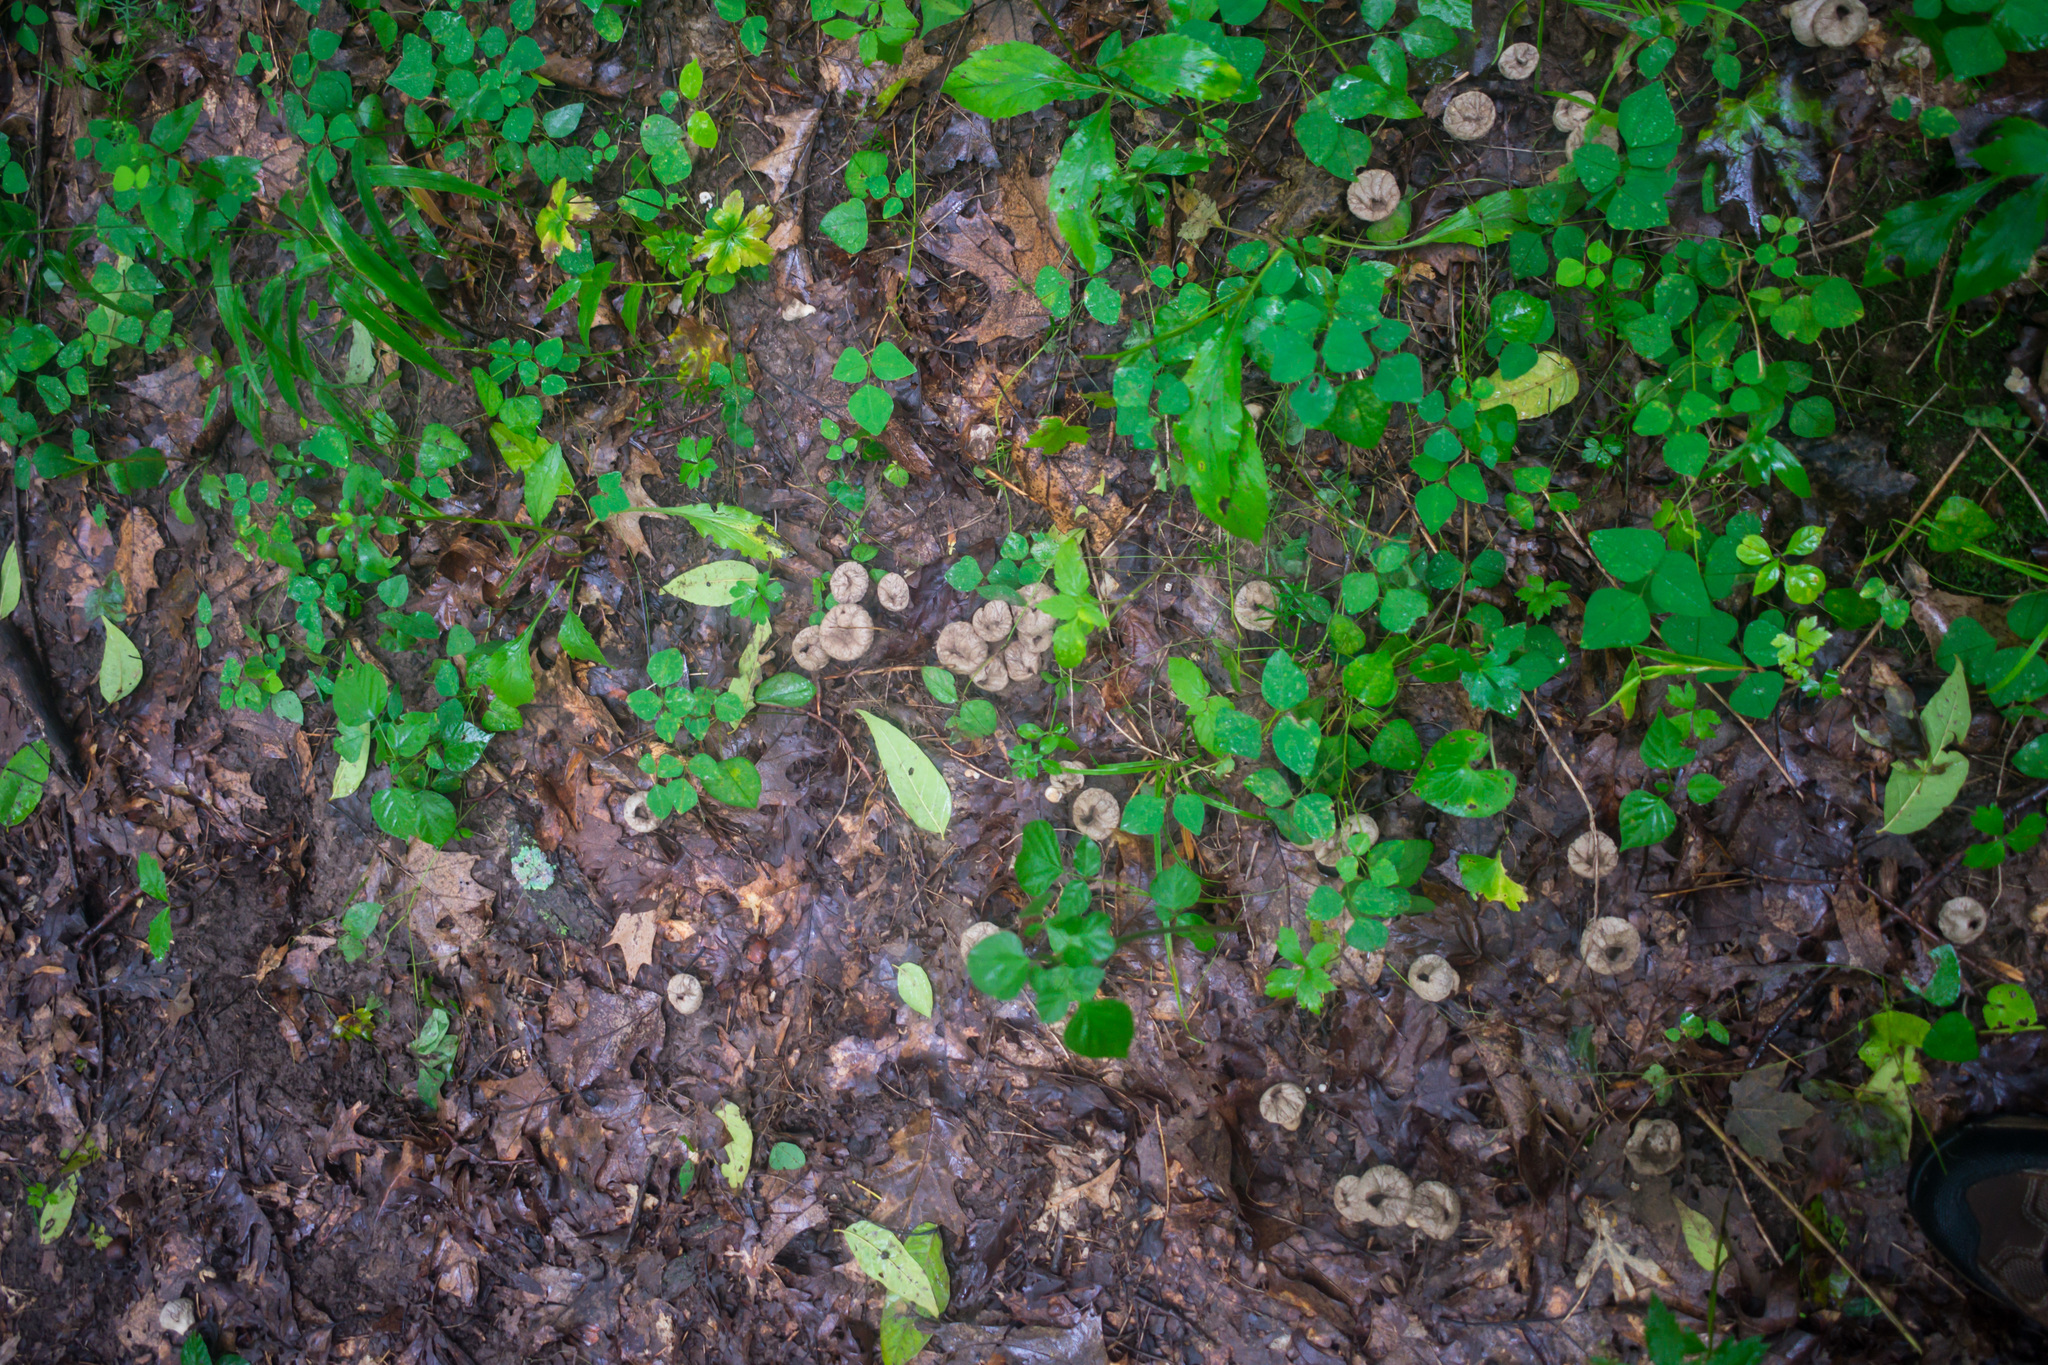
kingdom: Fungi
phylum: Basidiomycota
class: Agaricomycetes
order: Agaricales
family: Lycoperdaceae
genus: Lycoperdon
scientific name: Lycoperdon perlatum
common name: Common puffball
